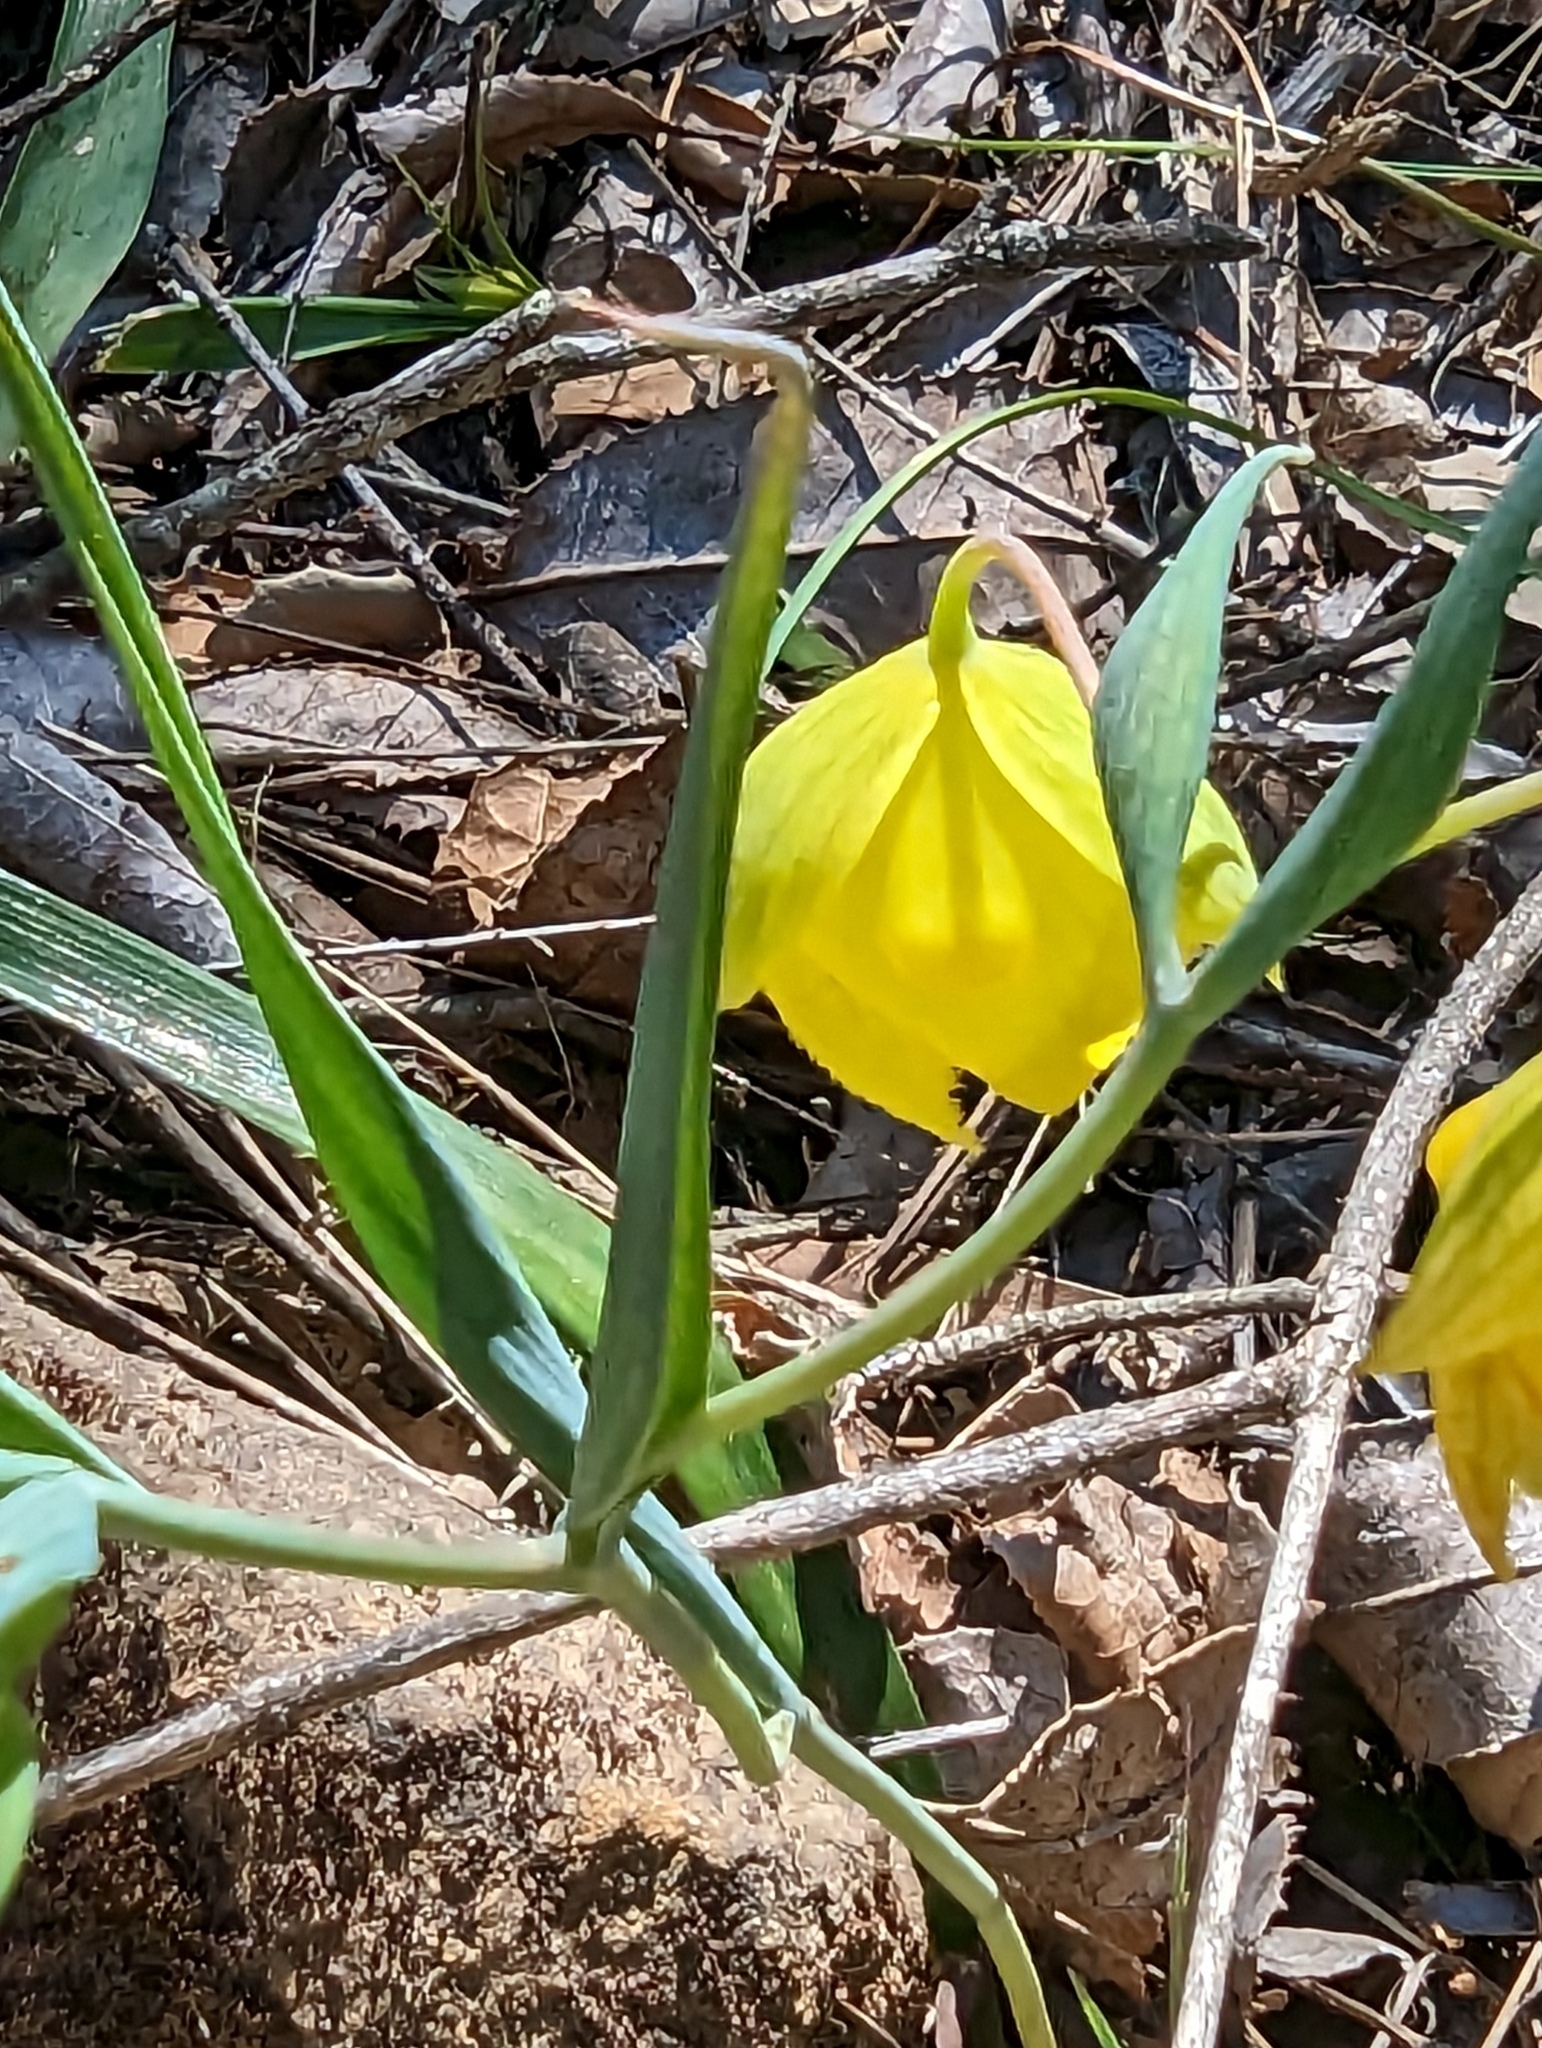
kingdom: Plantae
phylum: Tracheophyta
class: Liliopsida
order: Liliales
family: Liliaceae
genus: Calochortus
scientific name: Calochortus pulchellus
